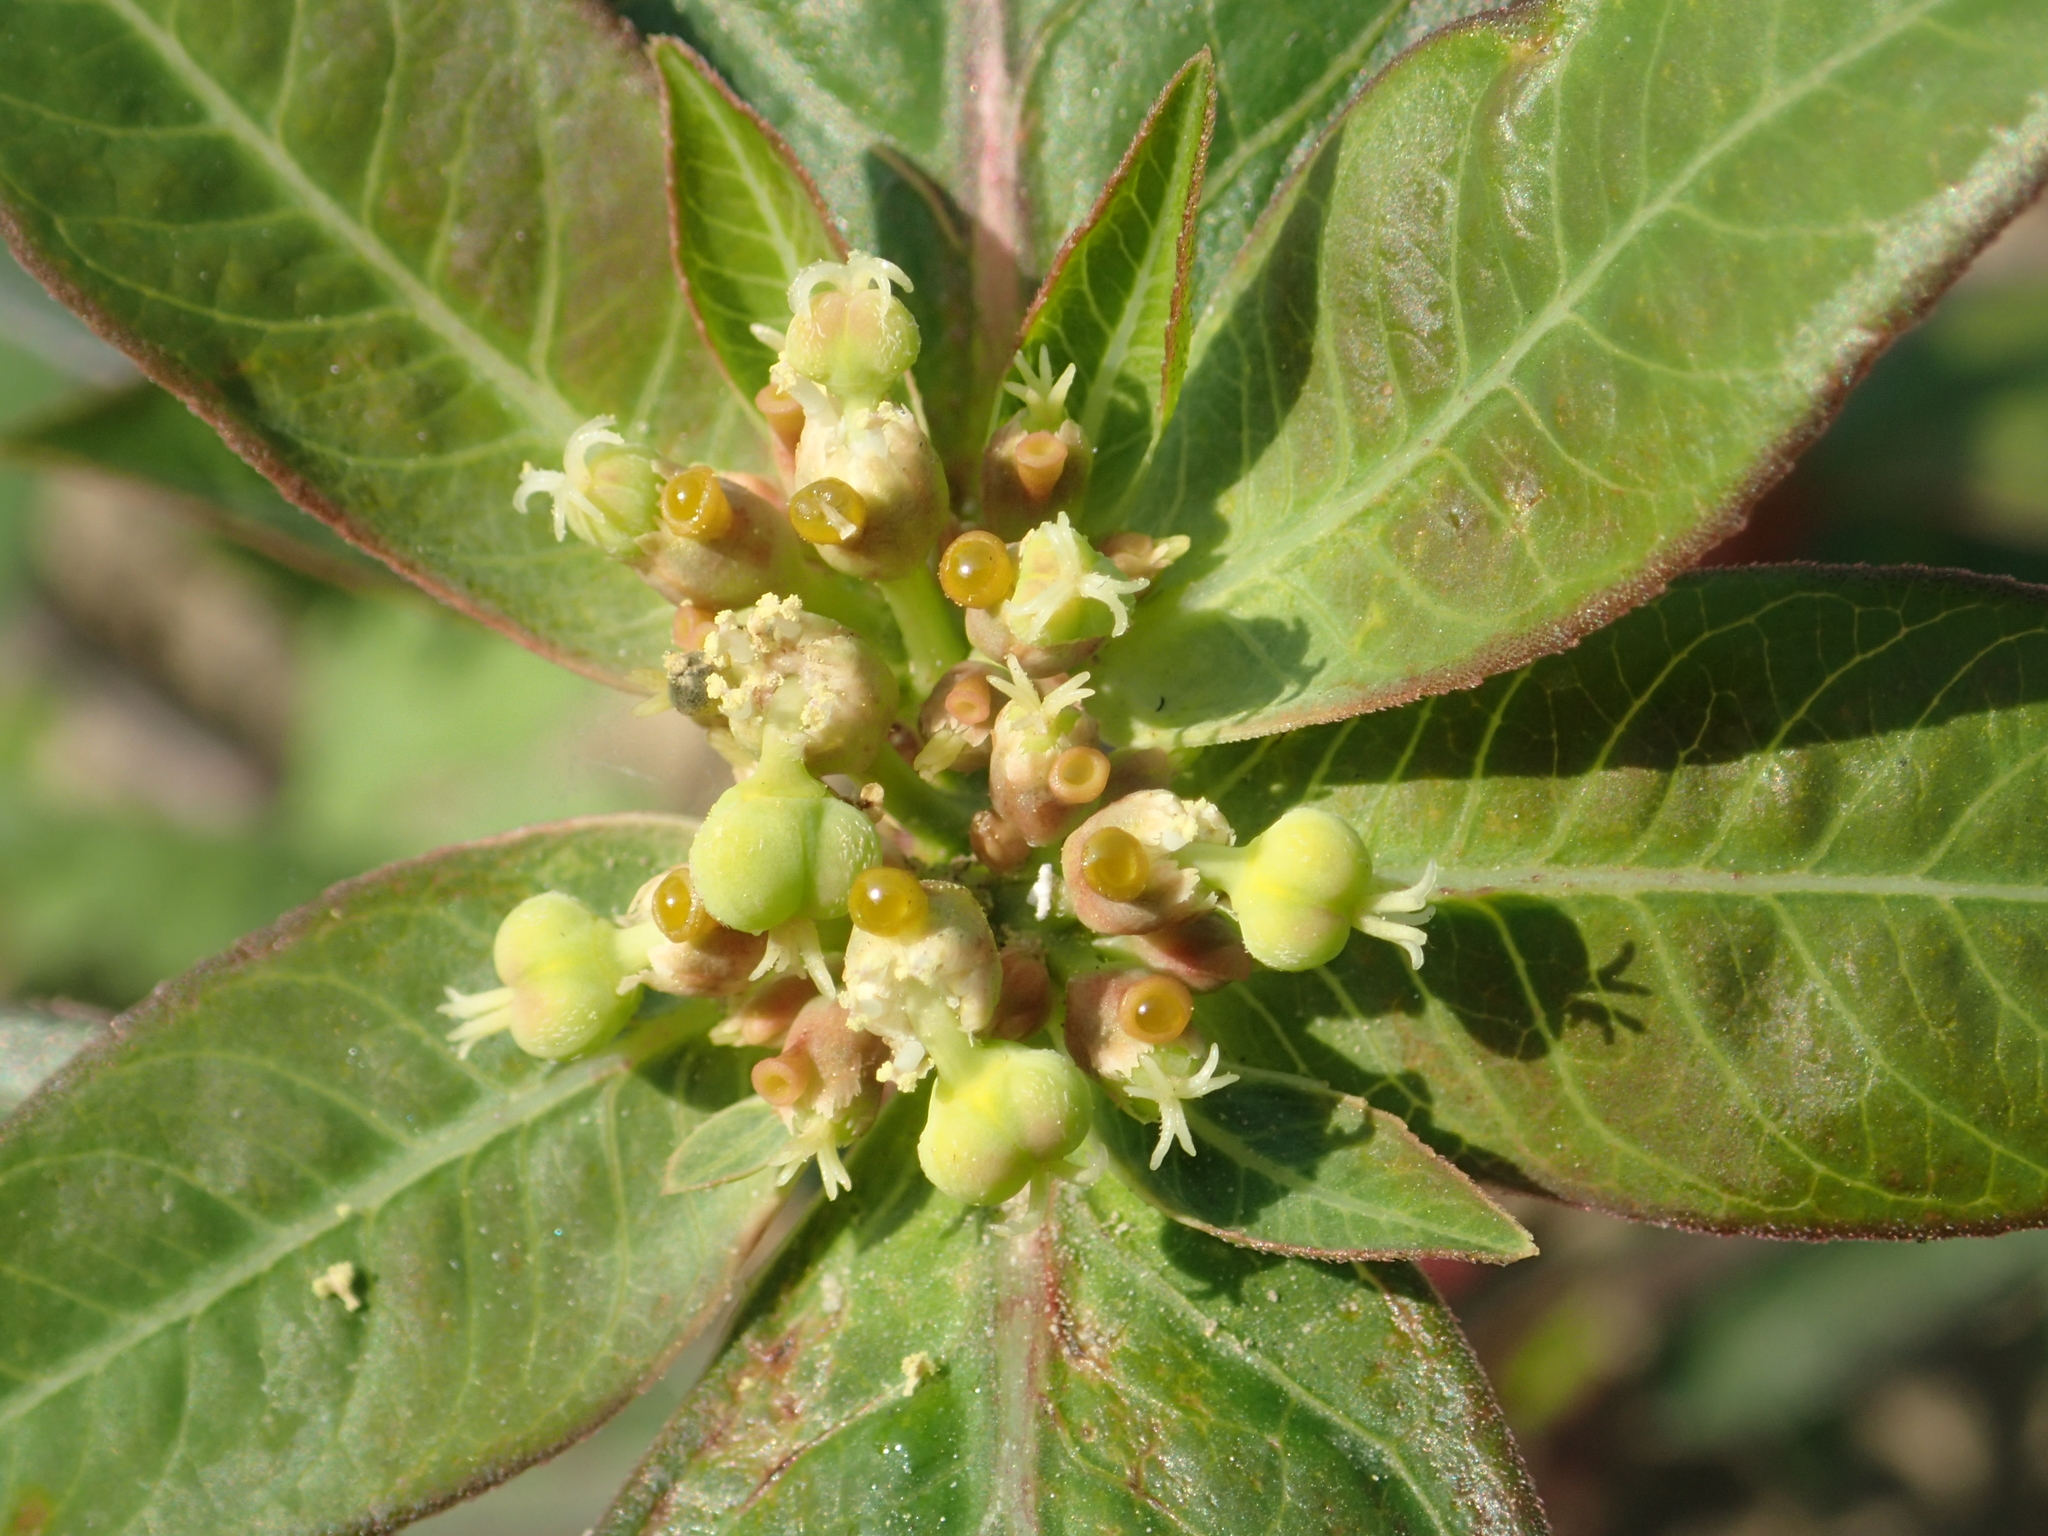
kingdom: Plantae
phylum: Tracheophyta
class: Magnoliopsida
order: Malpighiales
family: Euphorbiaceae
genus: Euphorbia
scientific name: Euphorbia heterophylla
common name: Mexican fireplant
